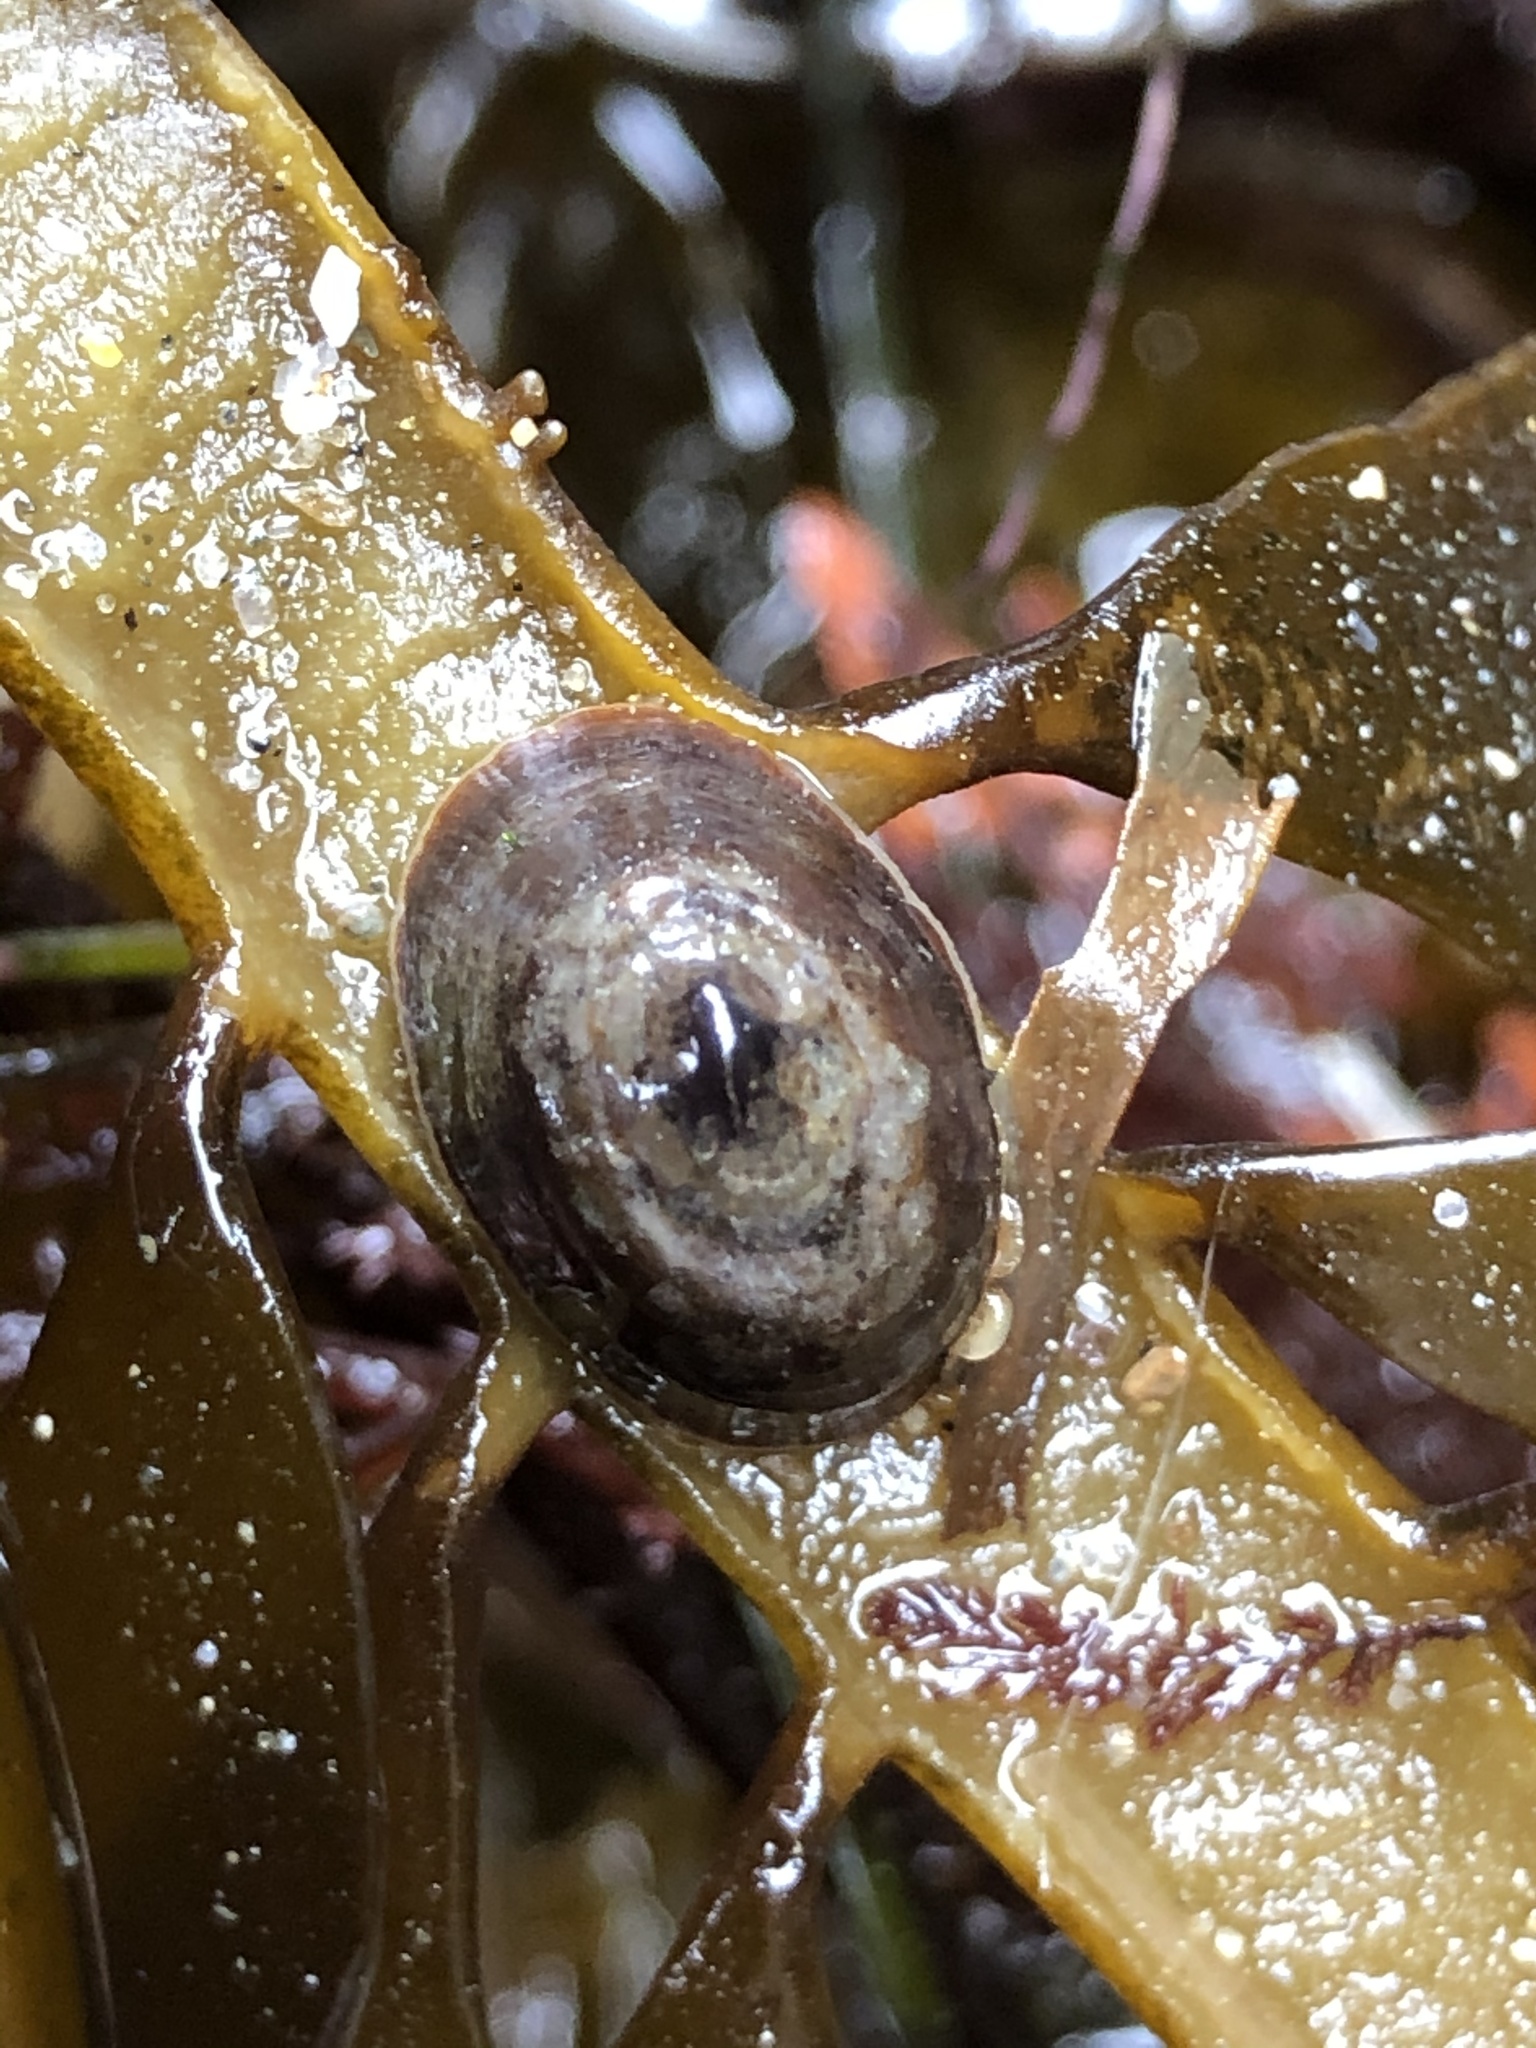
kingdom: Animalia
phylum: Mollusca
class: Gastropoda
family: Lottiidae
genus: Discurria
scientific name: Discurria insessa
